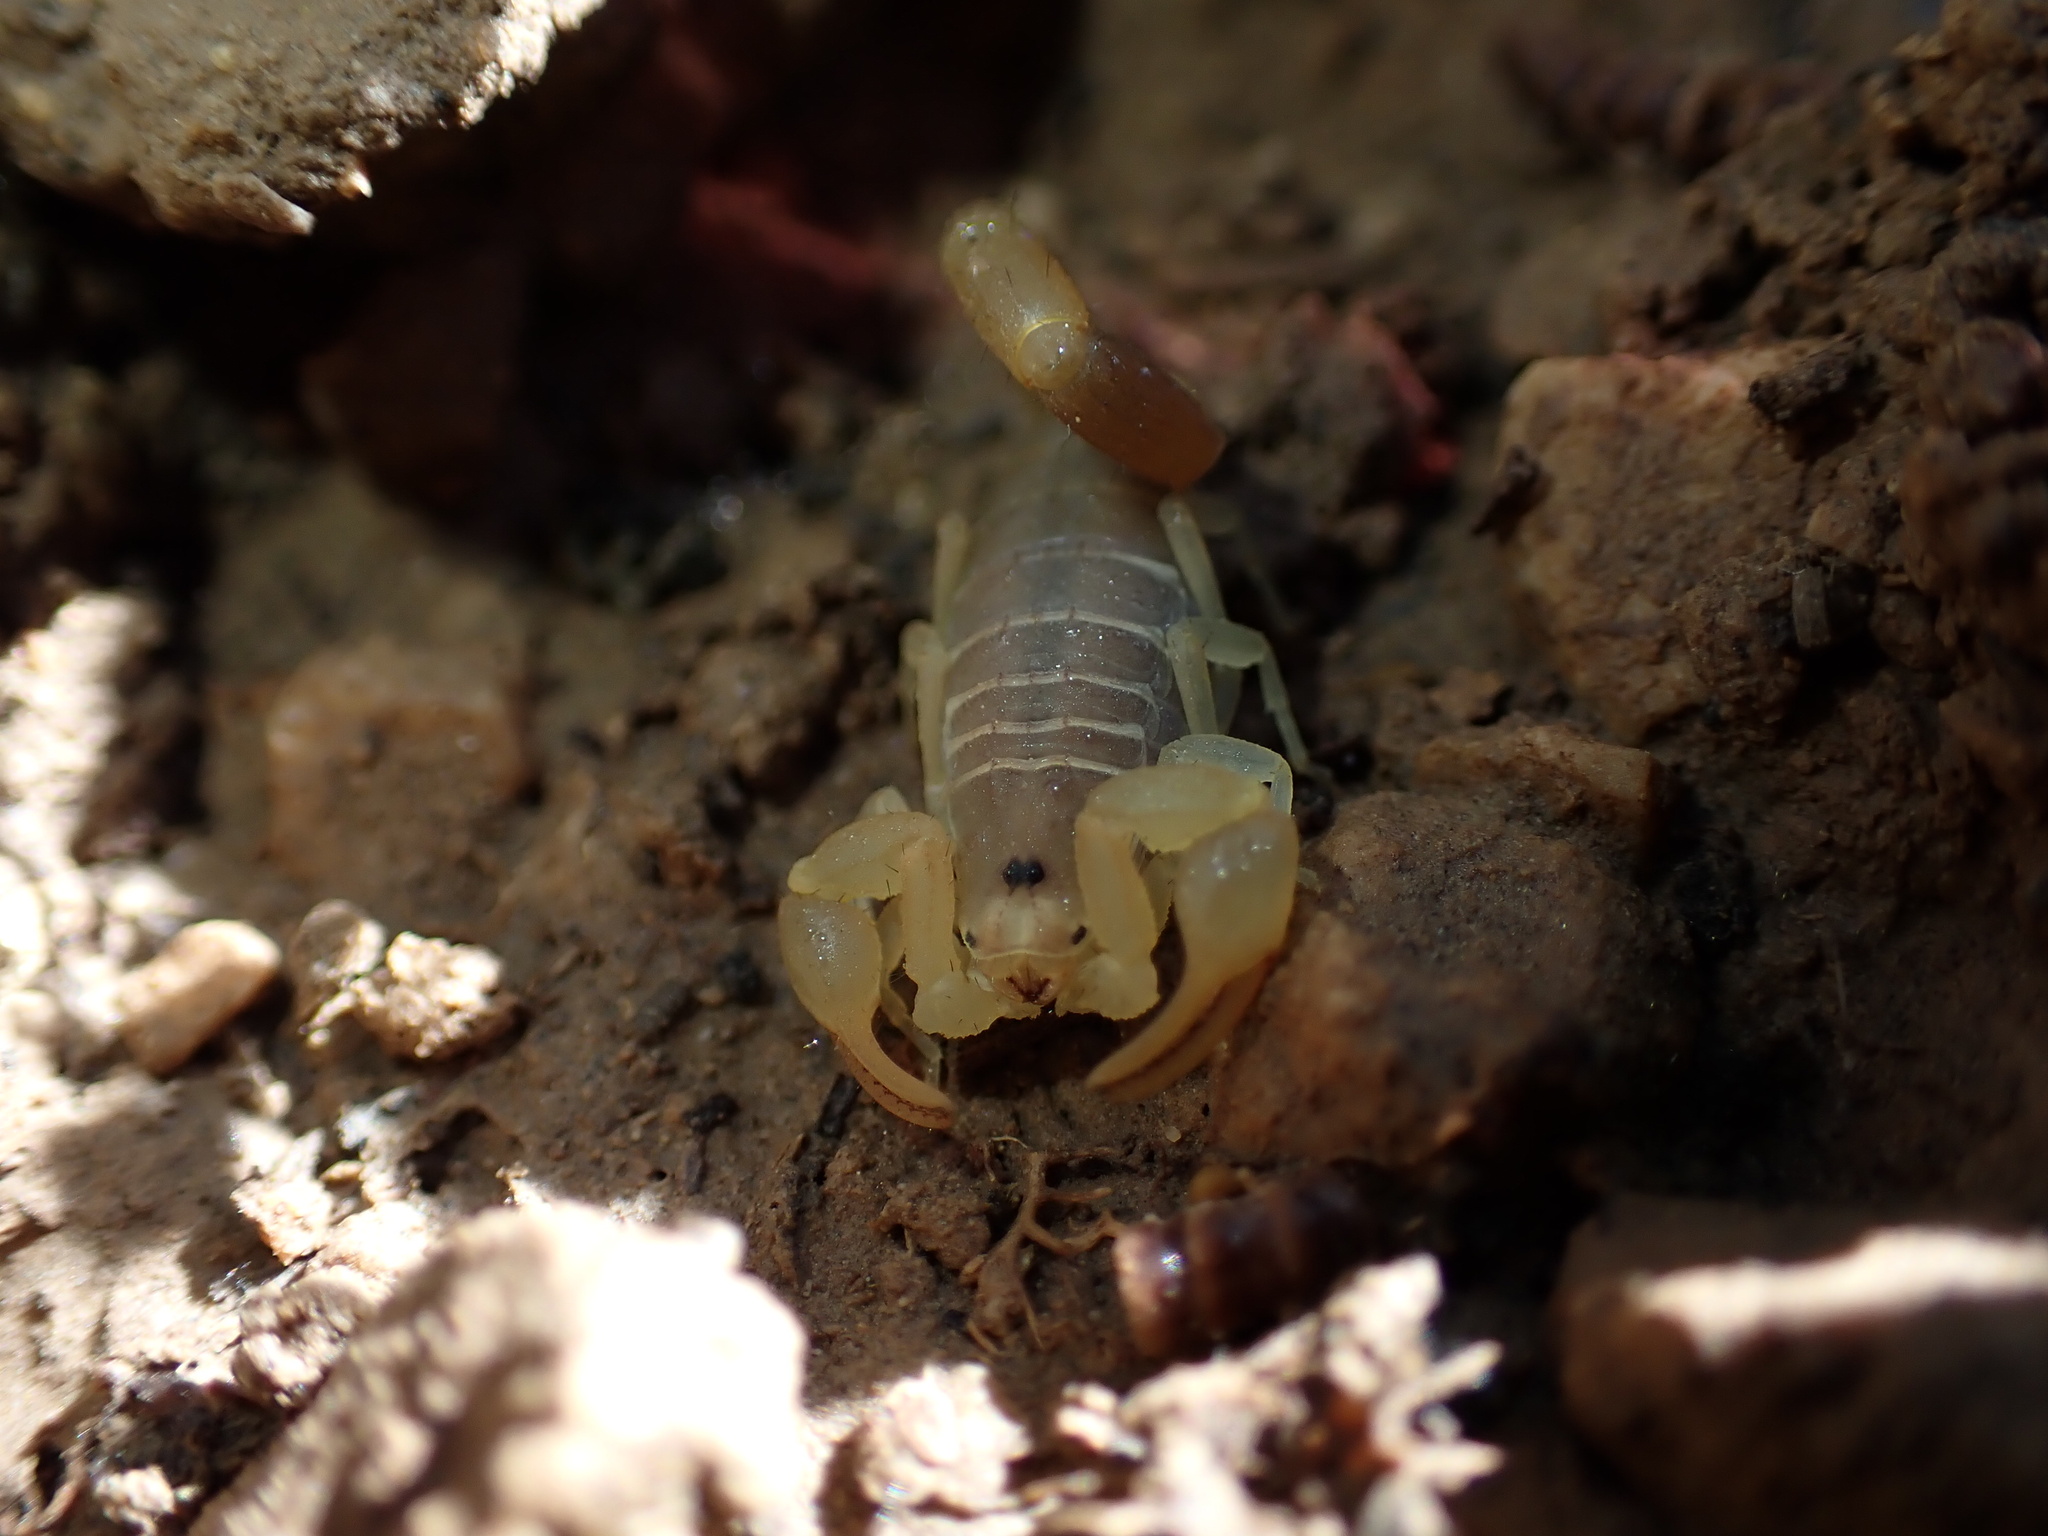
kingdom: Animalia
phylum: Arthropoda
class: Arachnida
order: Scorpiones
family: Buthidae
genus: Razianus
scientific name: Razianus zarudnyi
